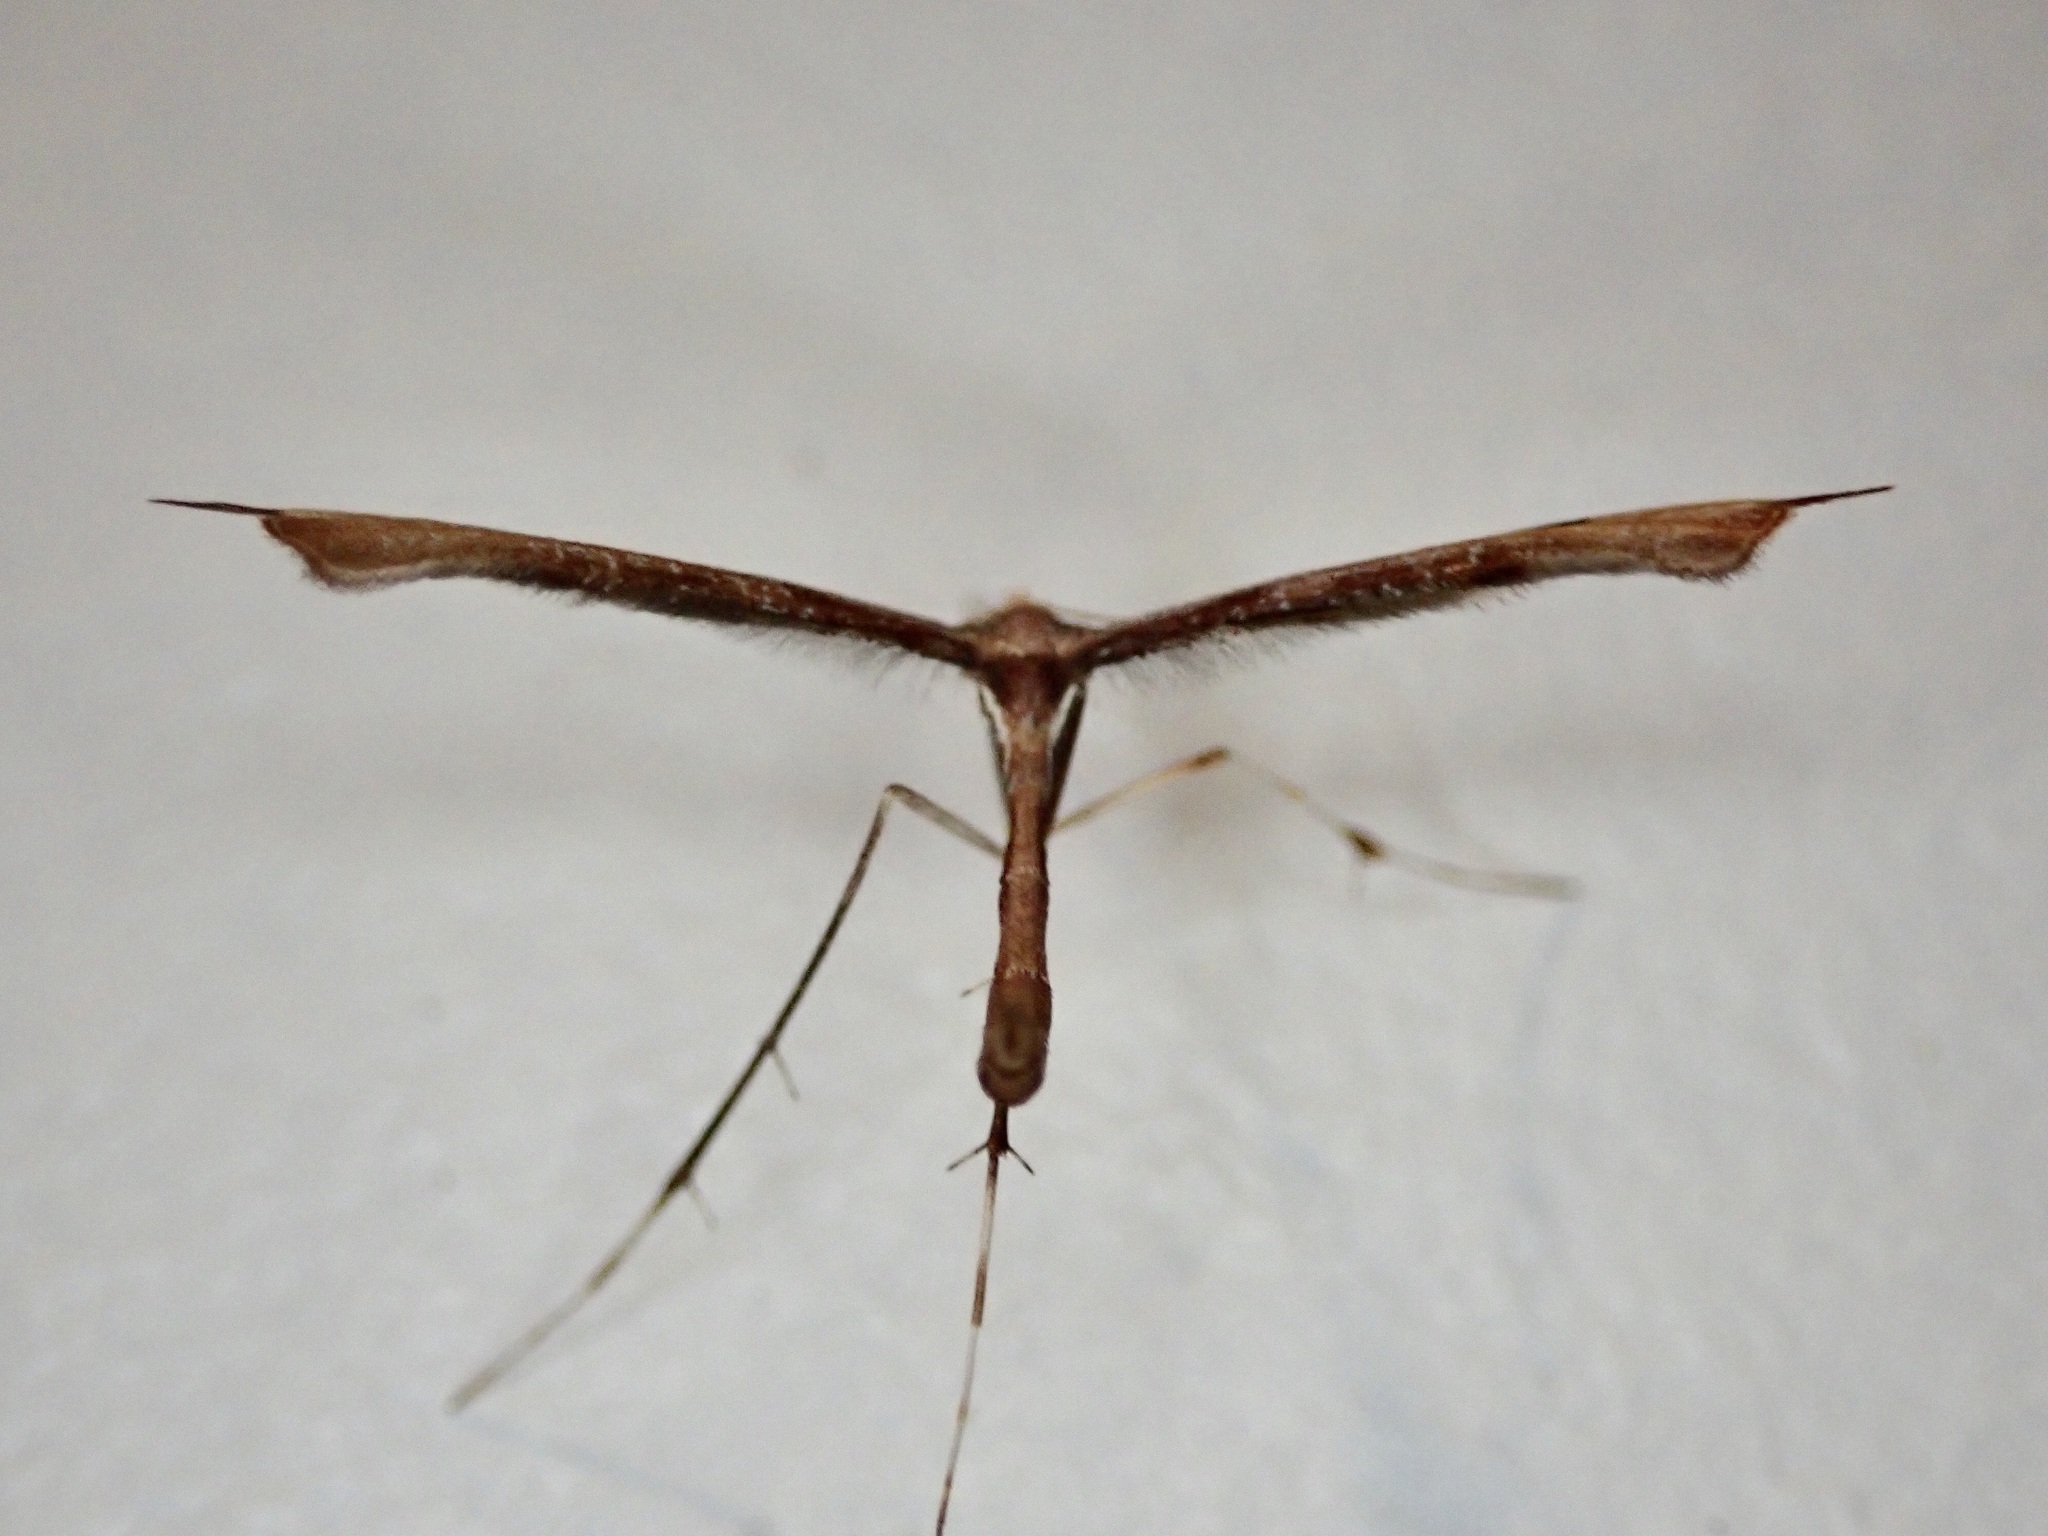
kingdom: Animalia
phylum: Arthropoda
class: Insecta
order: Lepidoptera
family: Pterophoridae
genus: Amblyptilia
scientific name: Amblyptilia heliastis
